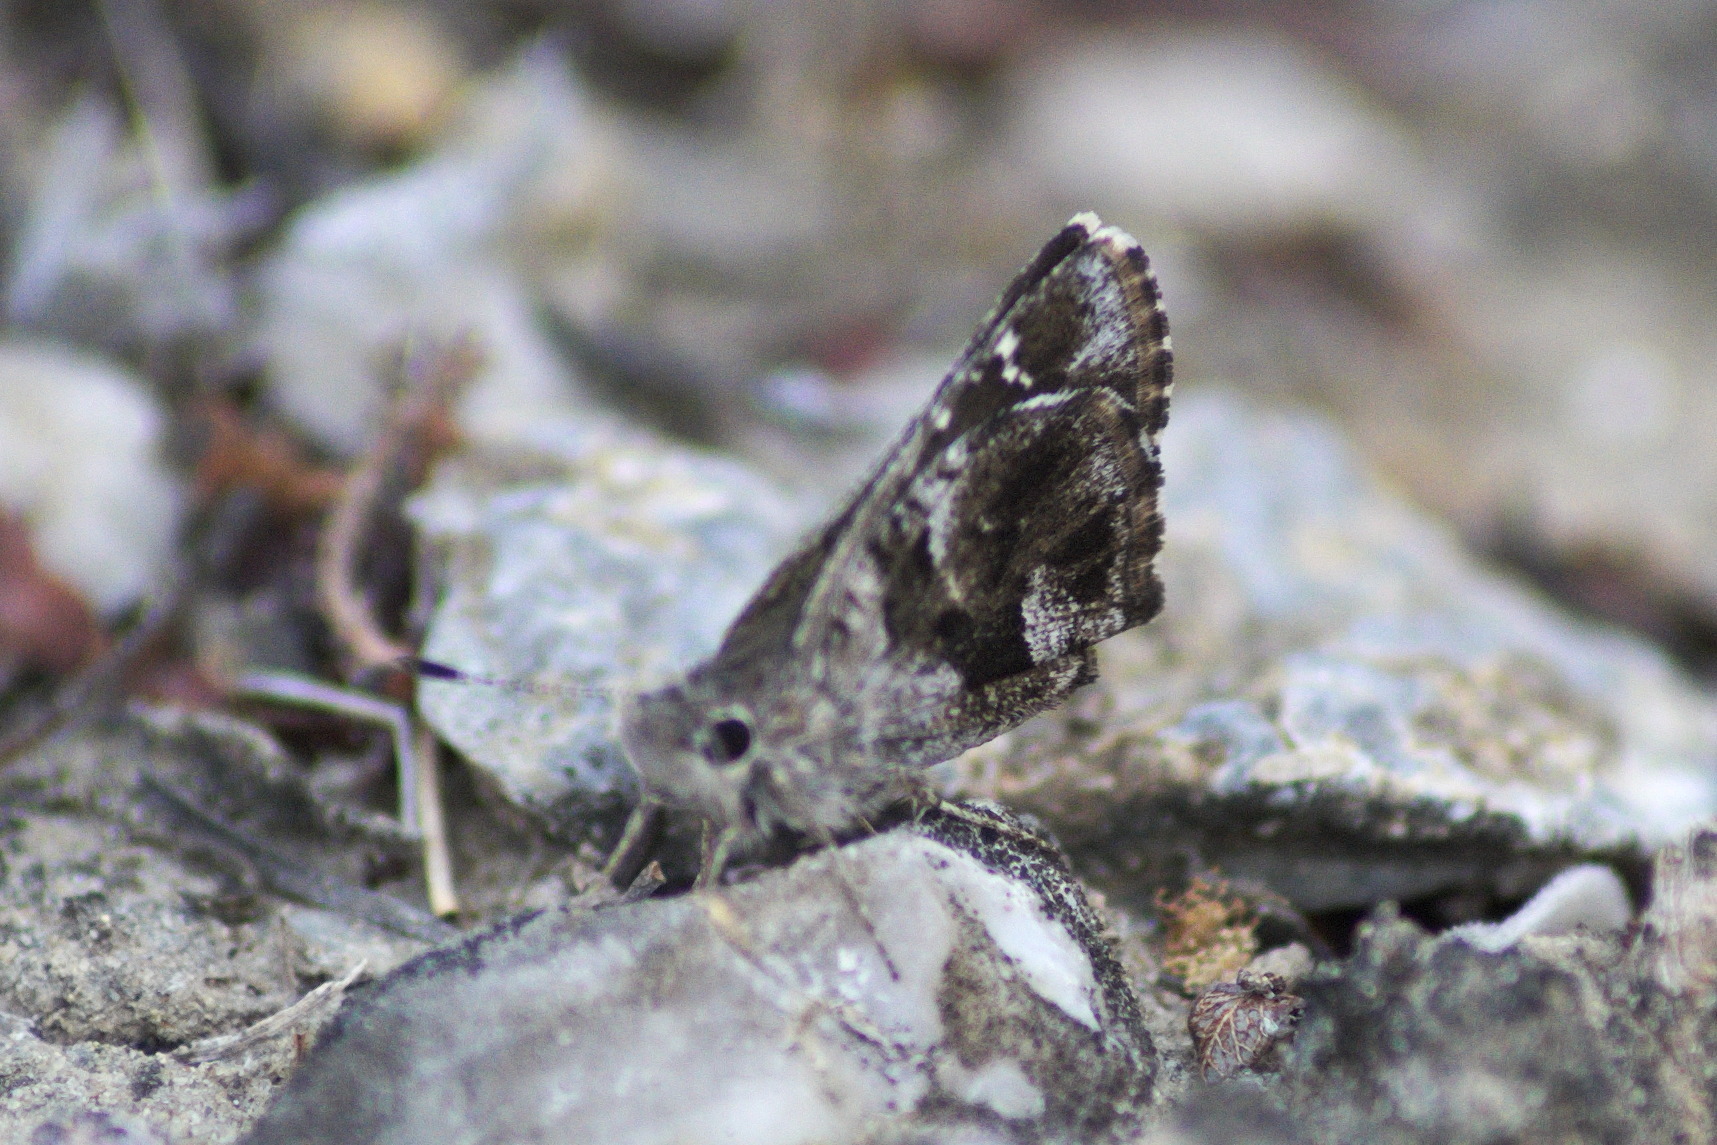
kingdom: Animalia
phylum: Arthropoda
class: Insecta
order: Lepidoptera
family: Hesperiidae
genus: Mastor
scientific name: Mastor nysa
